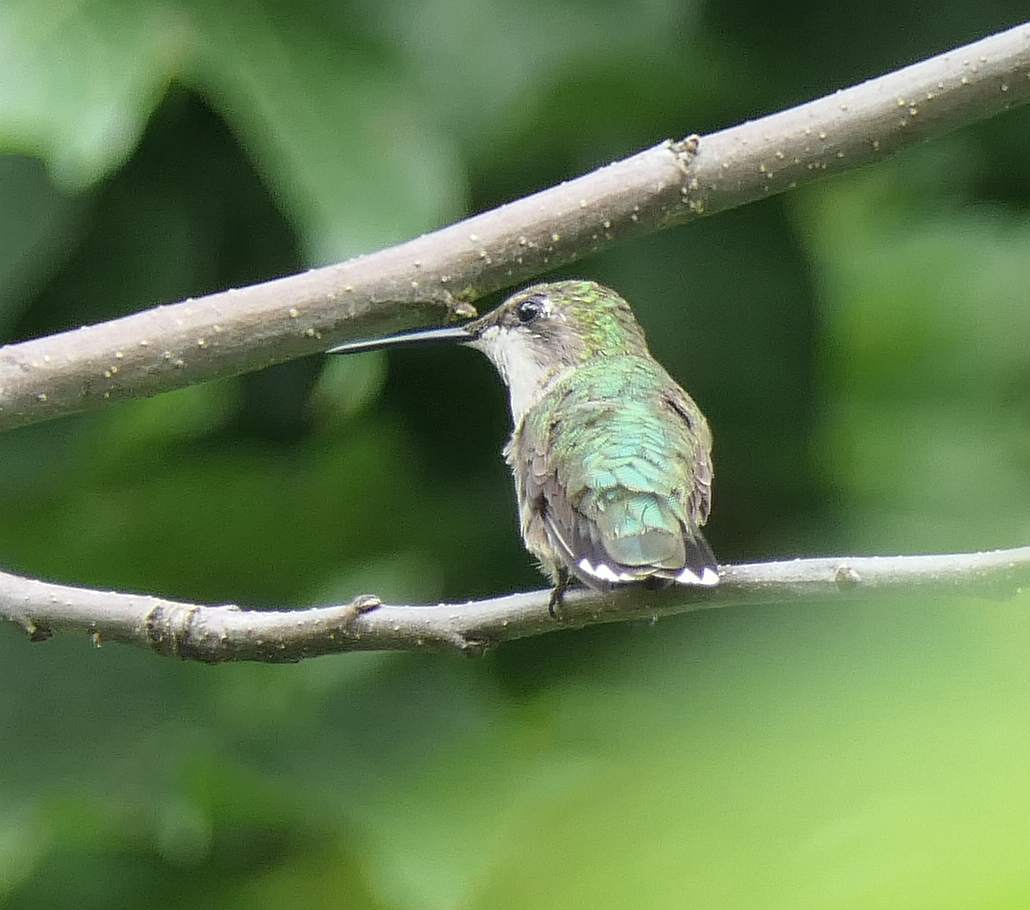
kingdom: Animalia
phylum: Chordata
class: Aves
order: Apodiformes
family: Trochilidae
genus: Archilochus
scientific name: Archilochus colubris
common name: Ruby-throated hummingbird
